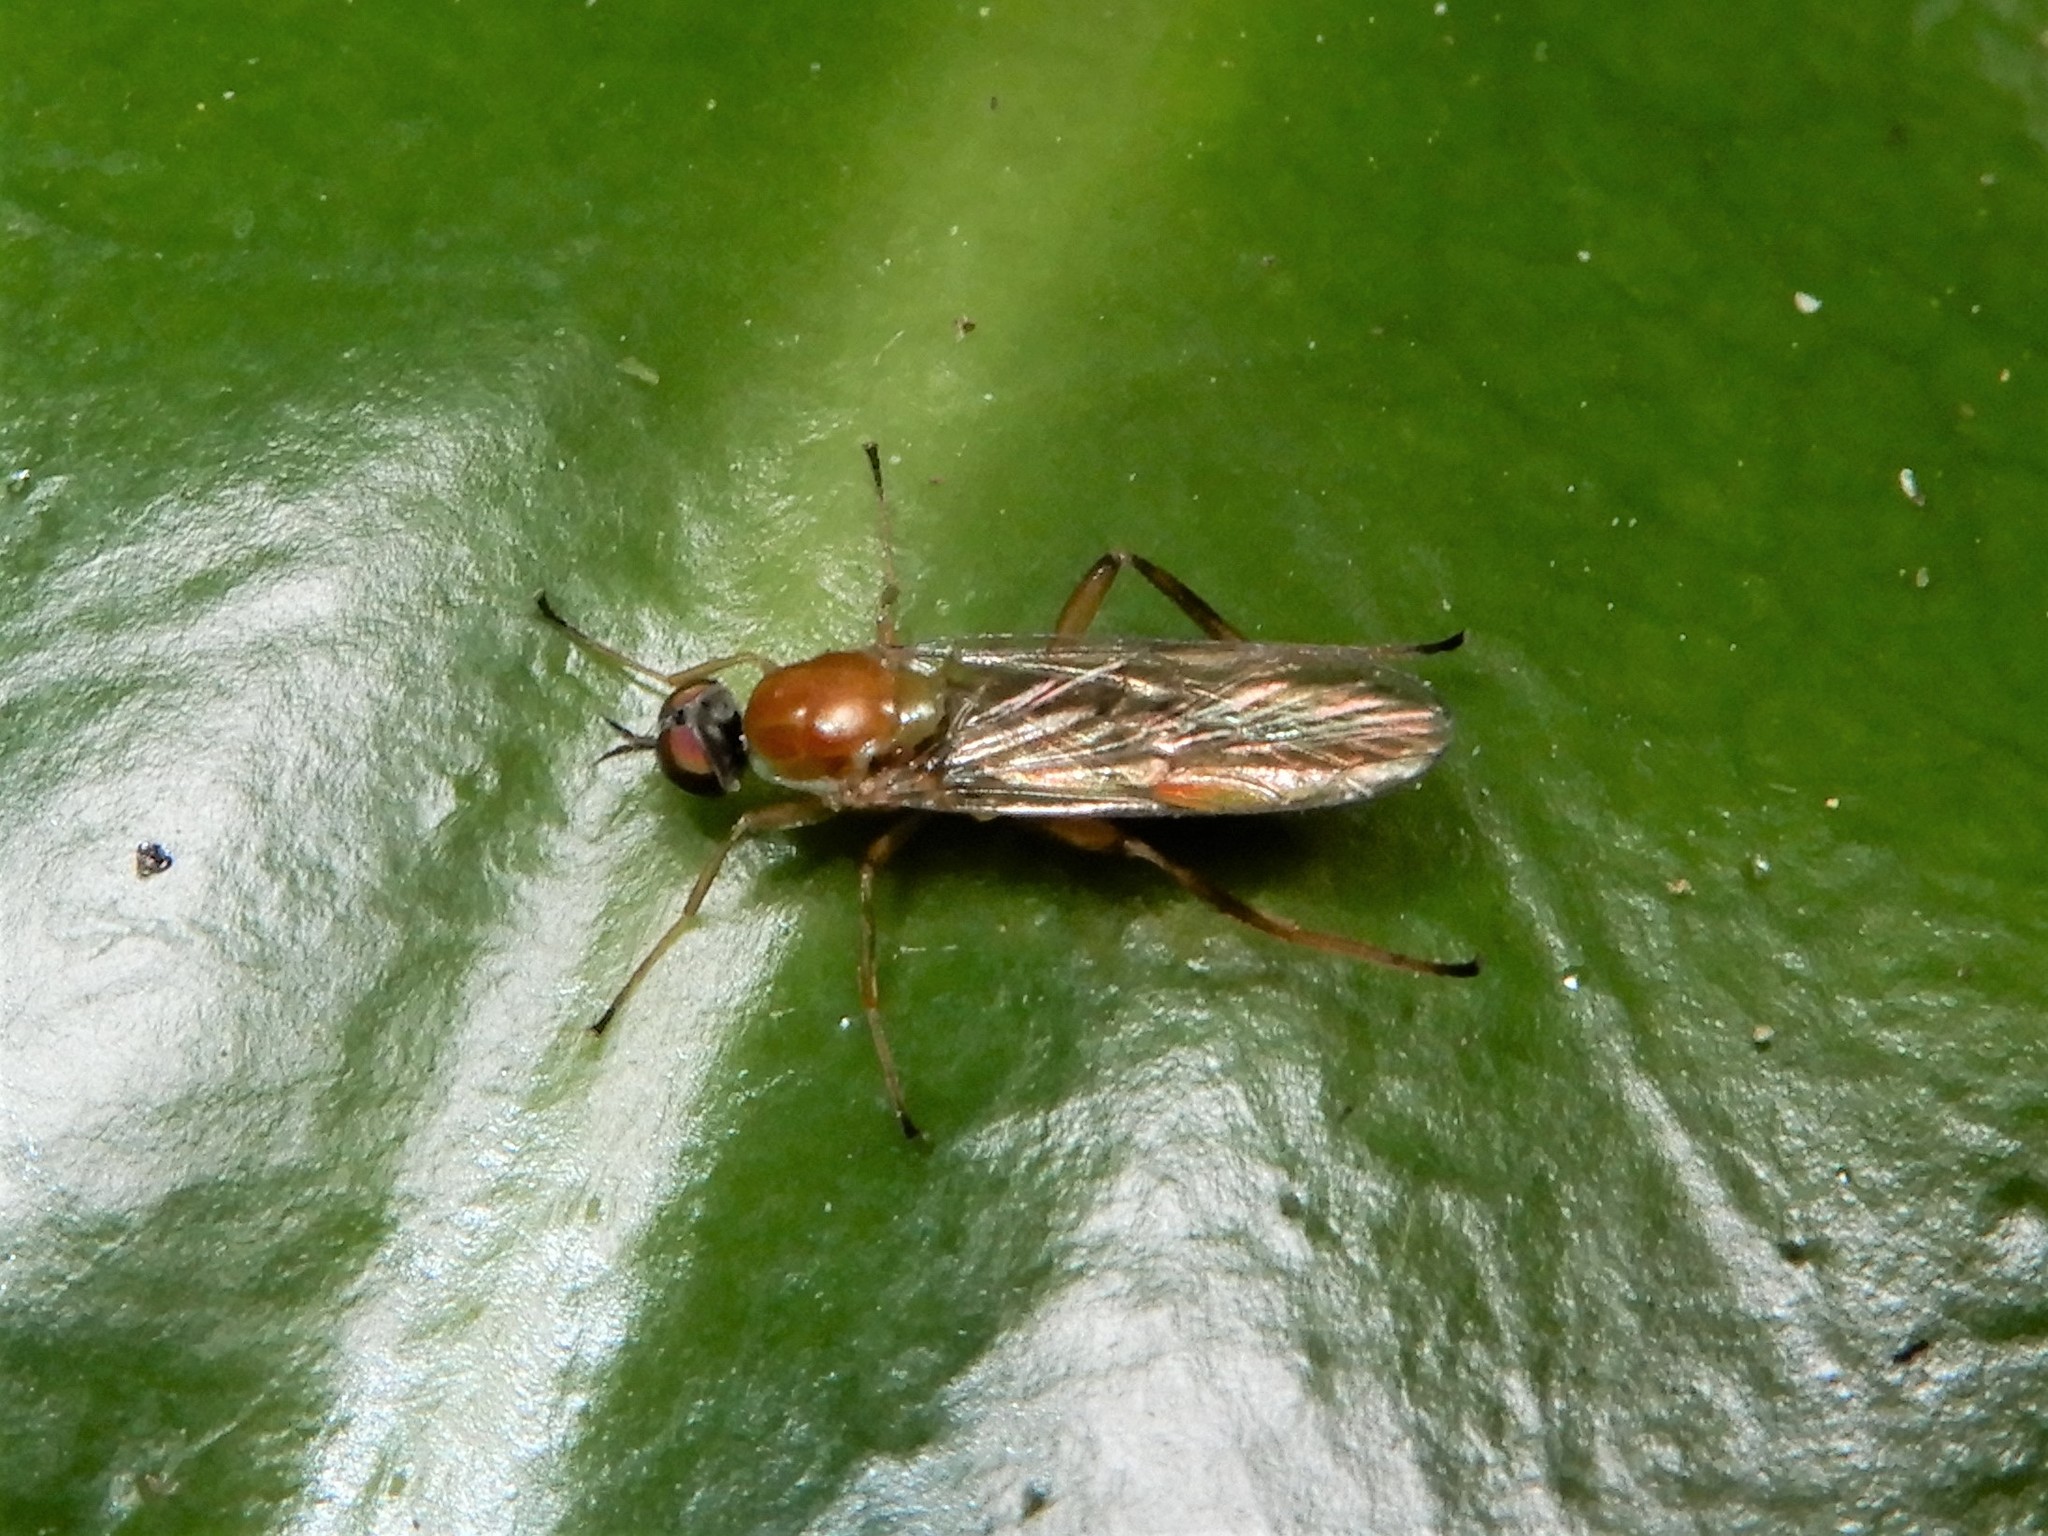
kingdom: Animalia
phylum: Arthropoda
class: Insecta
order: Diptera
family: Stratiomyidae
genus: Australoberis
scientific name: Australoberis refugians
